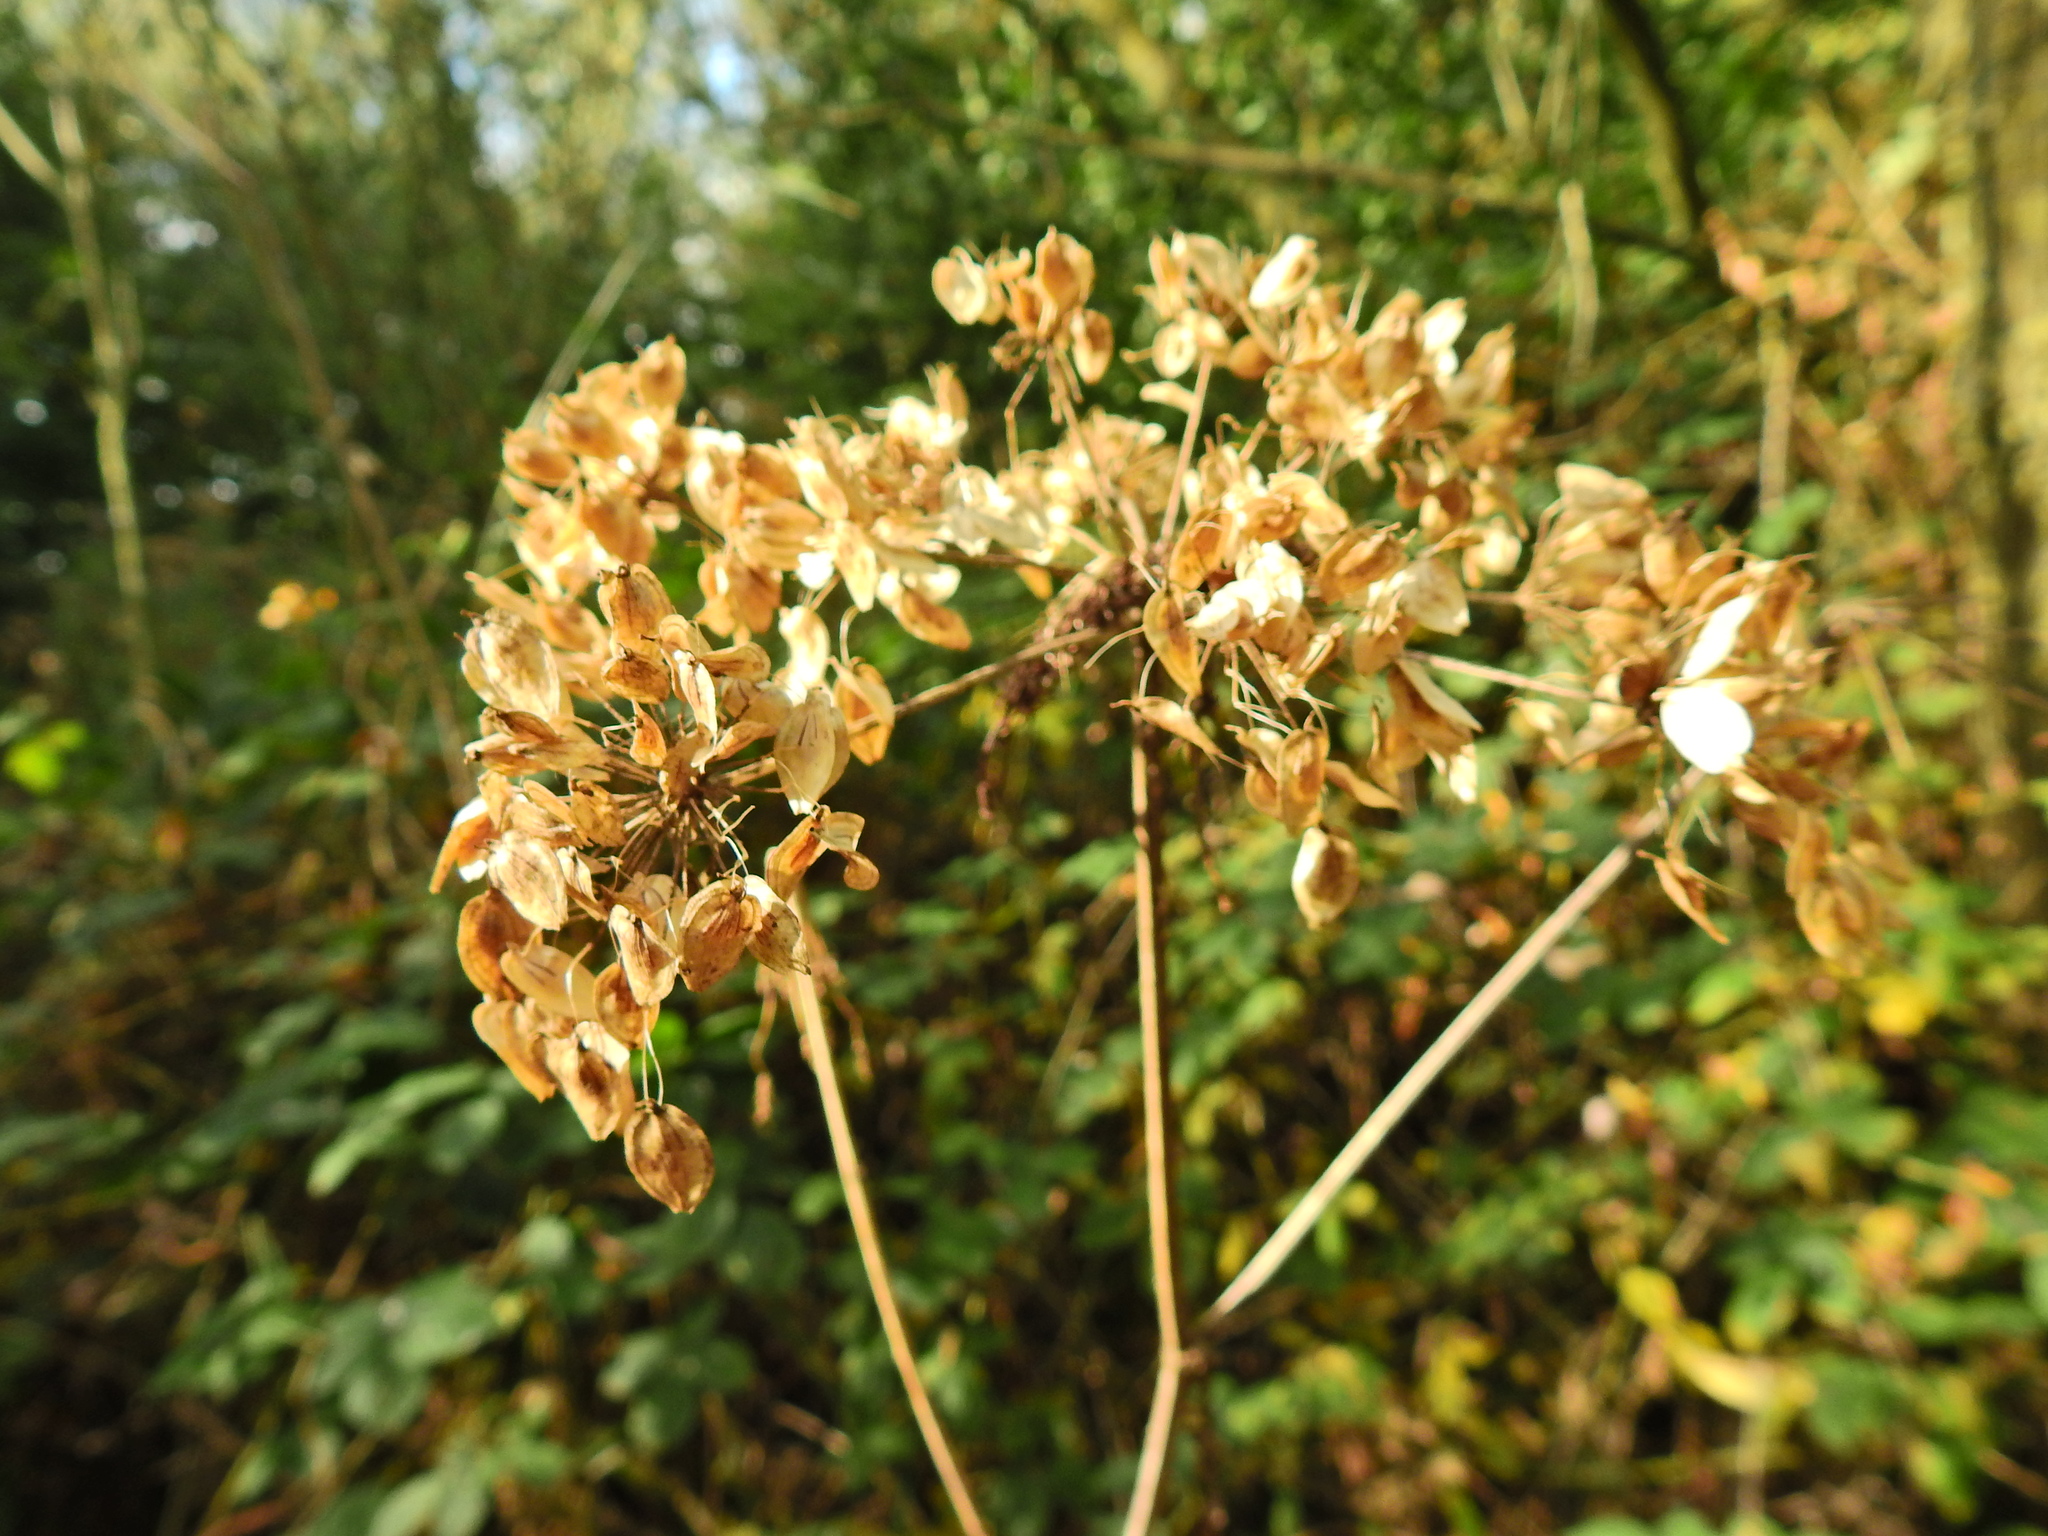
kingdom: Plantae
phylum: Tracheophyta
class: Magnoliopsida
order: Apiales
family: Apiaceae
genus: Heracleum
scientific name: Heracleum sphondylium
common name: Hogweed
